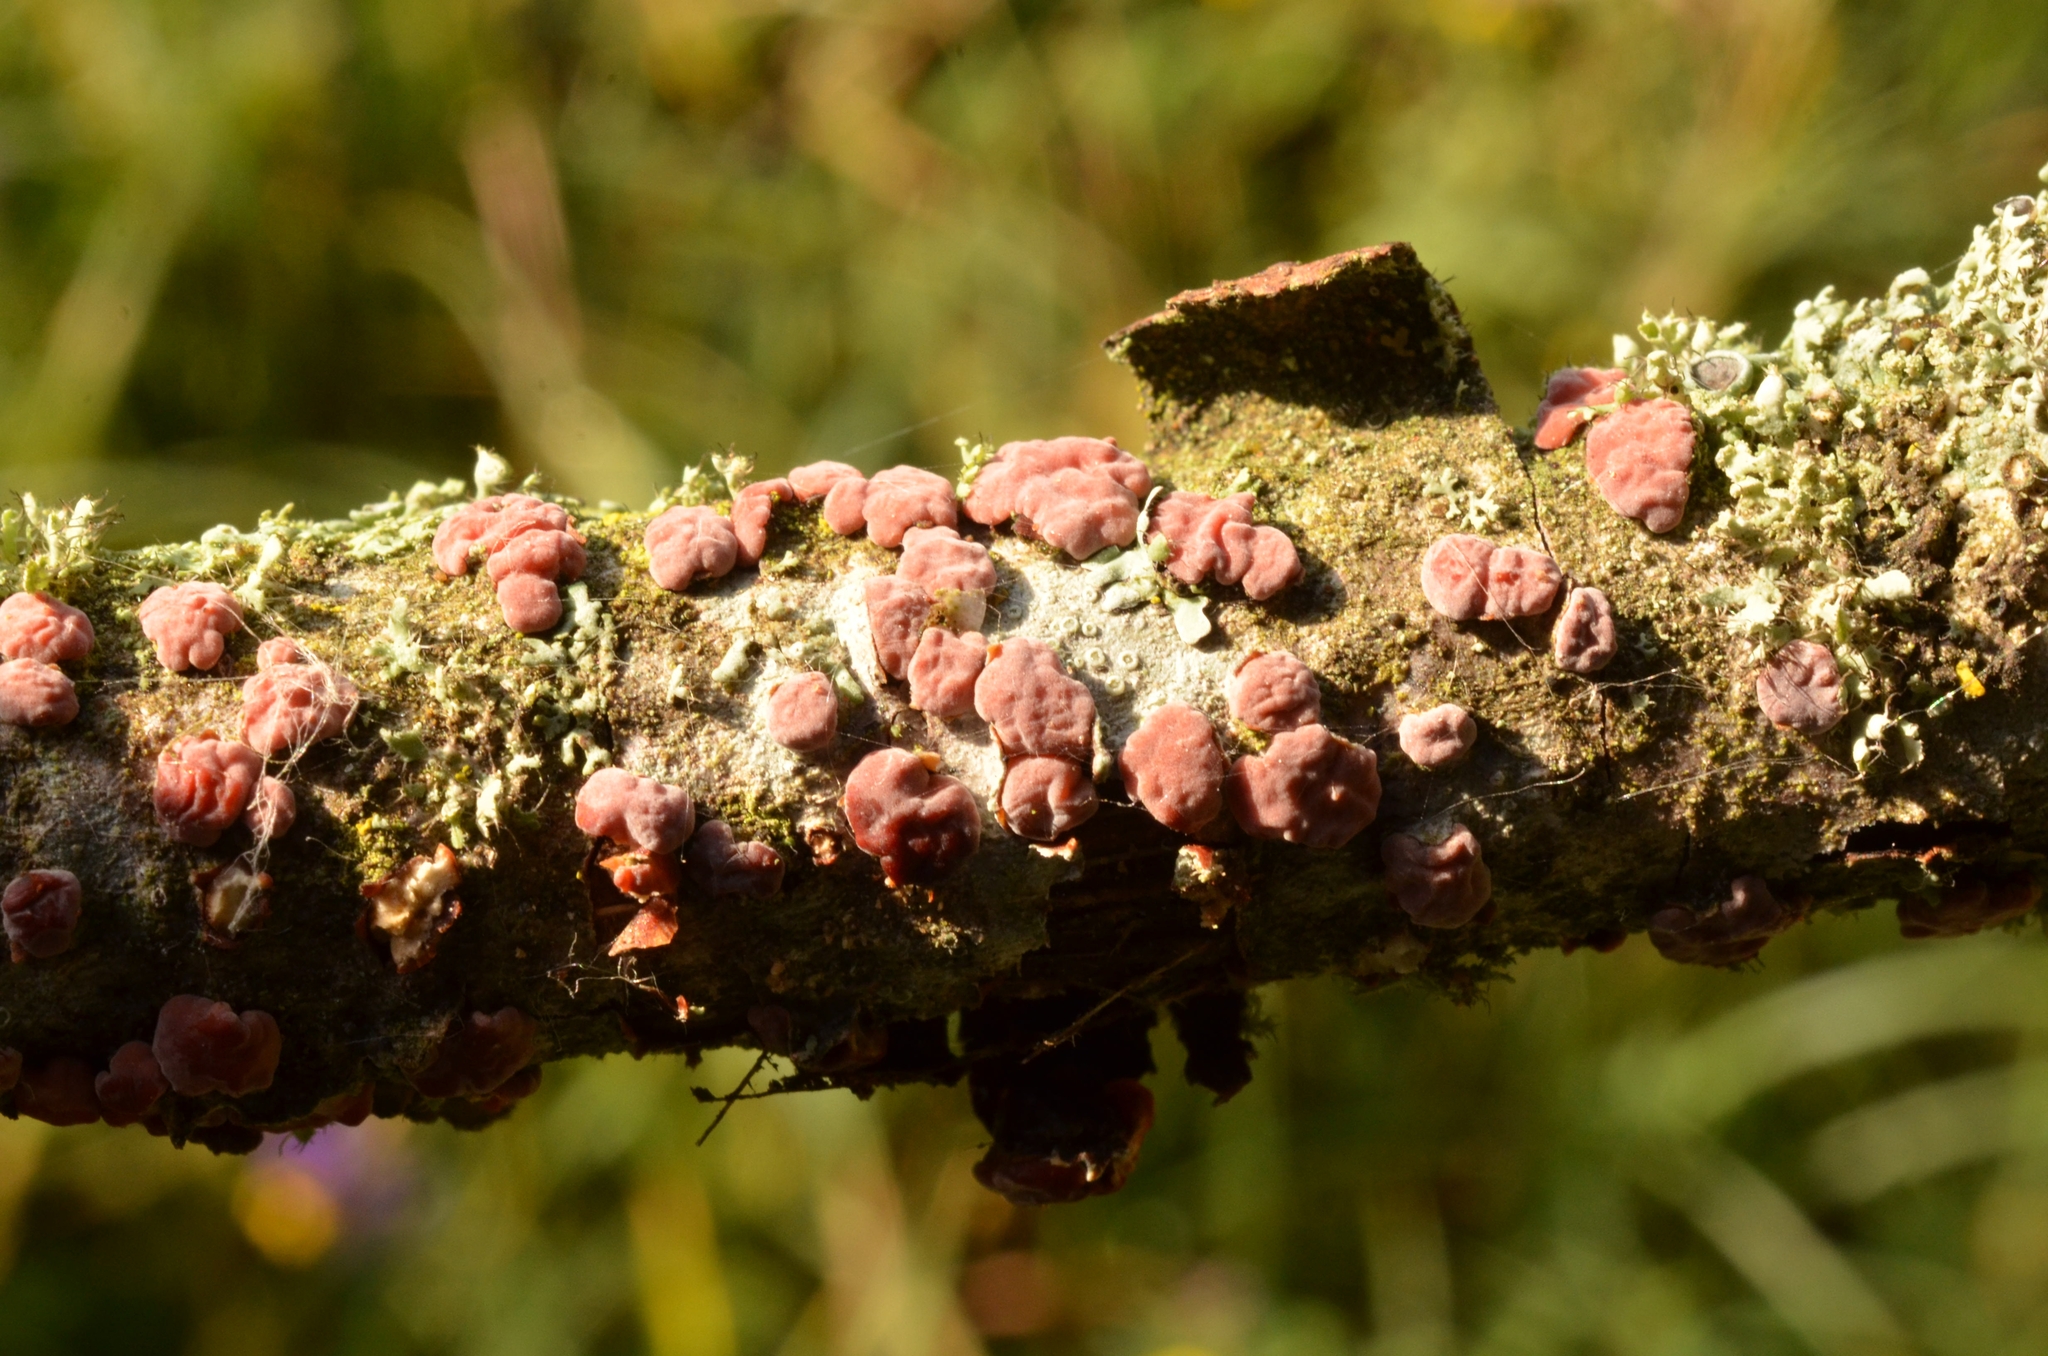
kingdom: Fungi
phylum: Basidiomycota
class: Agaricomycetes
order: Russulales
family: Peniophoraceae
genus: Peniophora
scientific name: Peniophora rufa
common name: Red tree brain fungus
